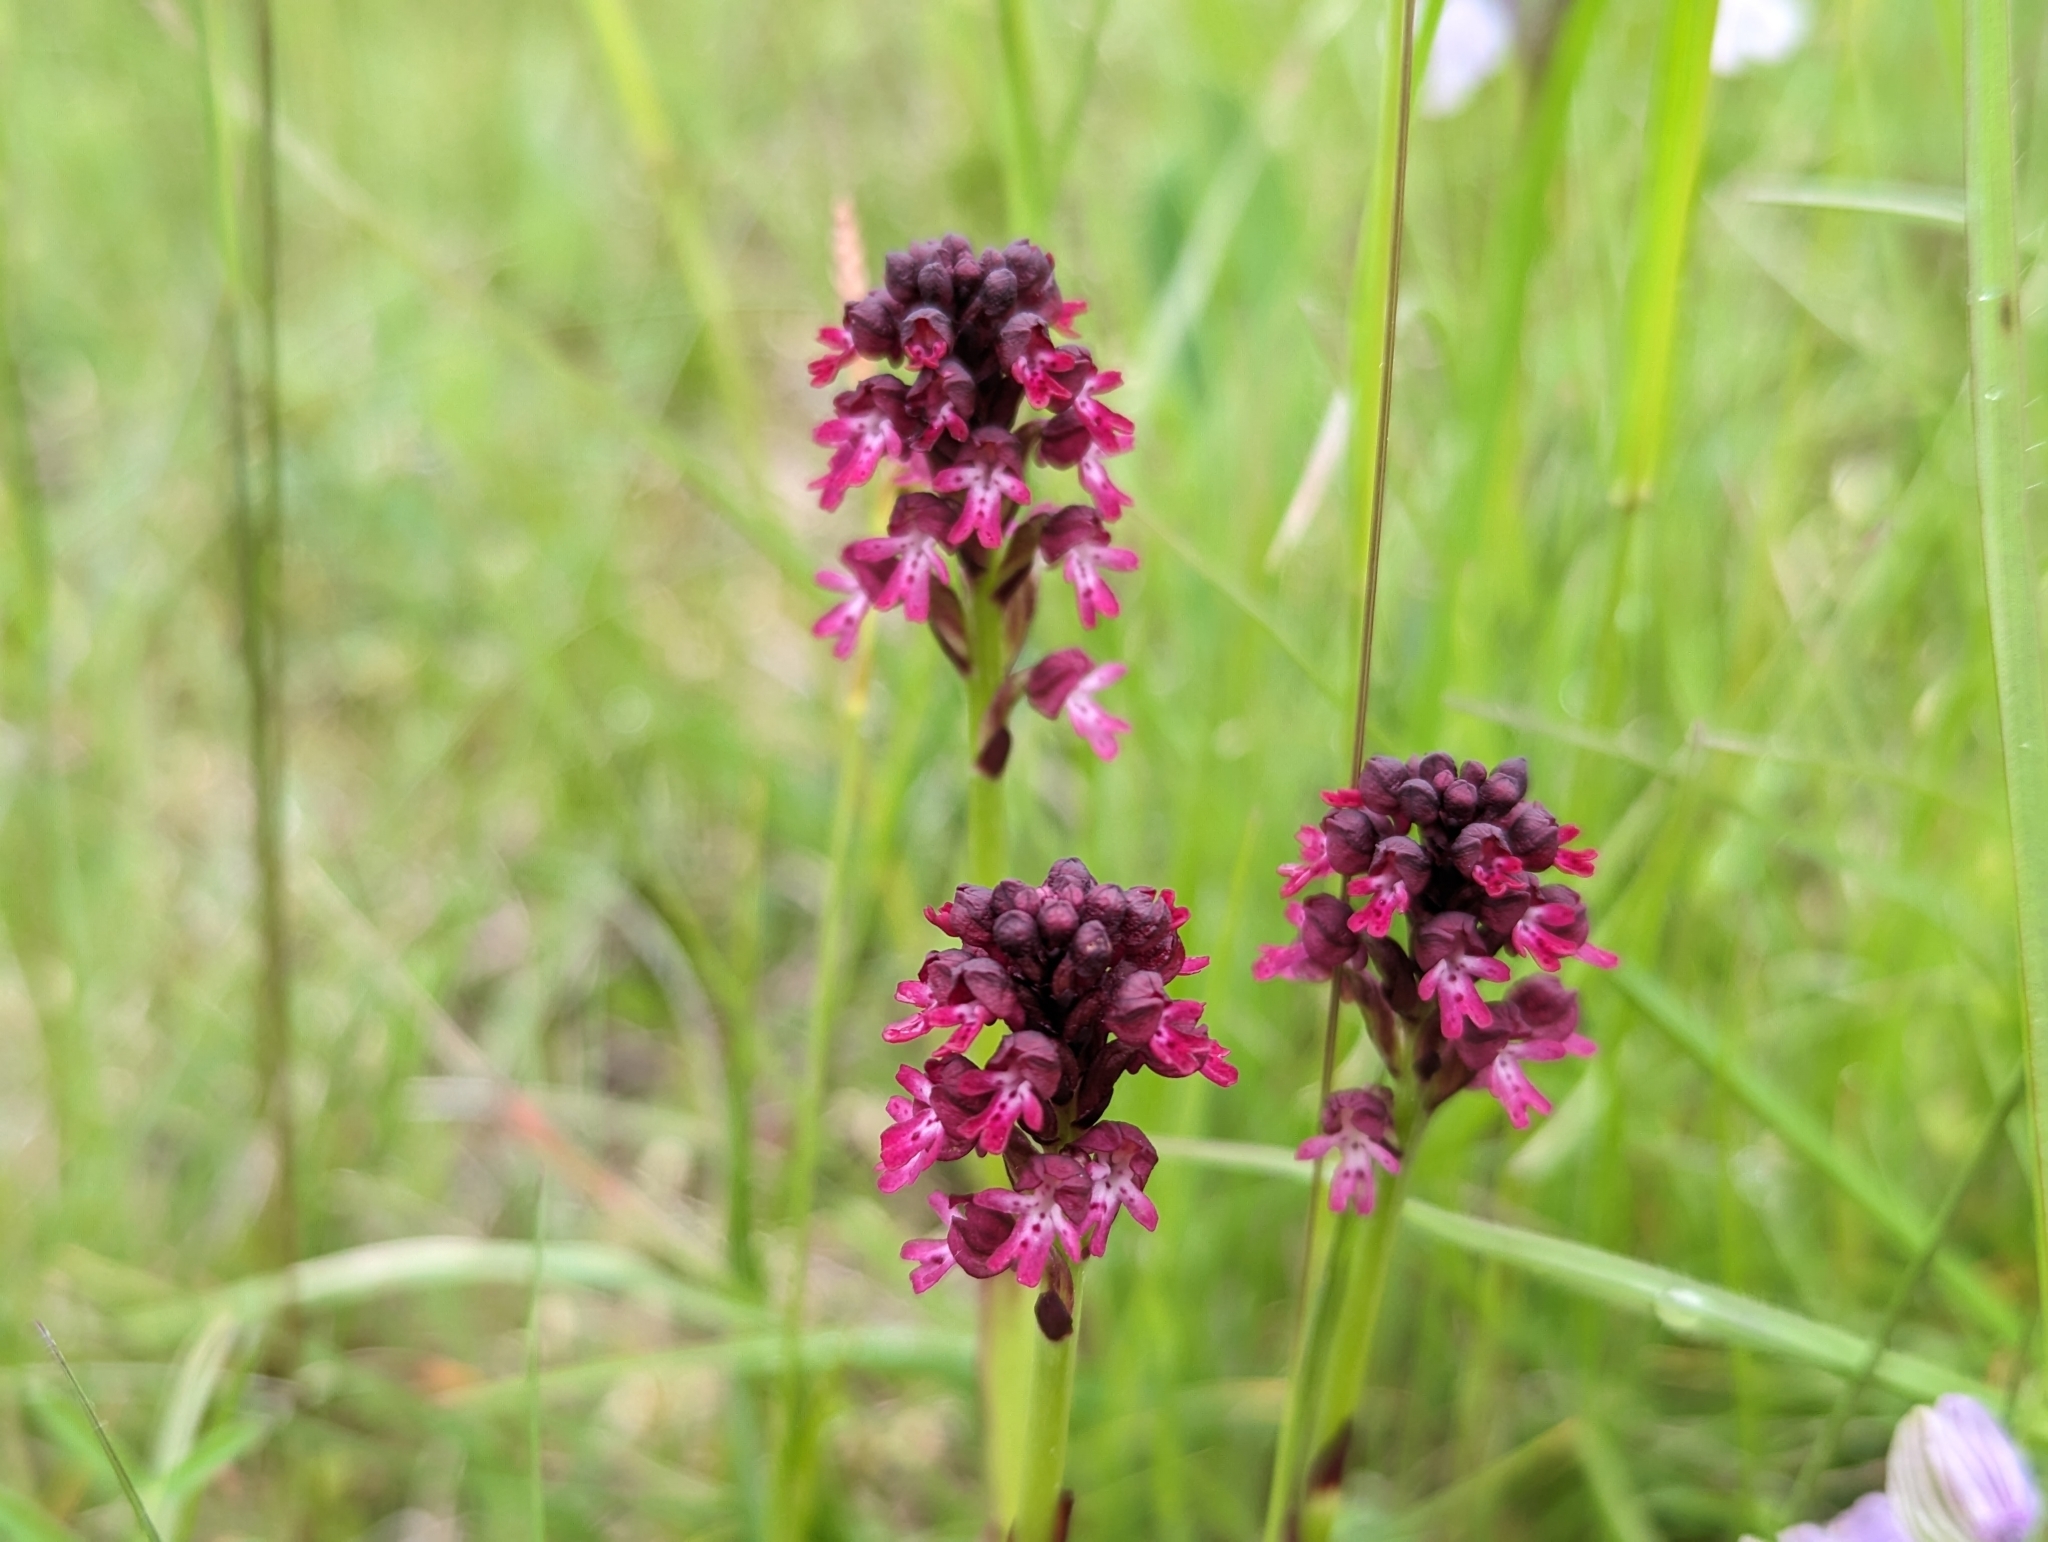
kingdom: Plantae
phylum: Tracheophyta
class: Liliopsida
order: Asparagales
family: Orchidaceae
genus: Neotinea
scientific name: Neotinea ustulata
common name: Burnt orchid
